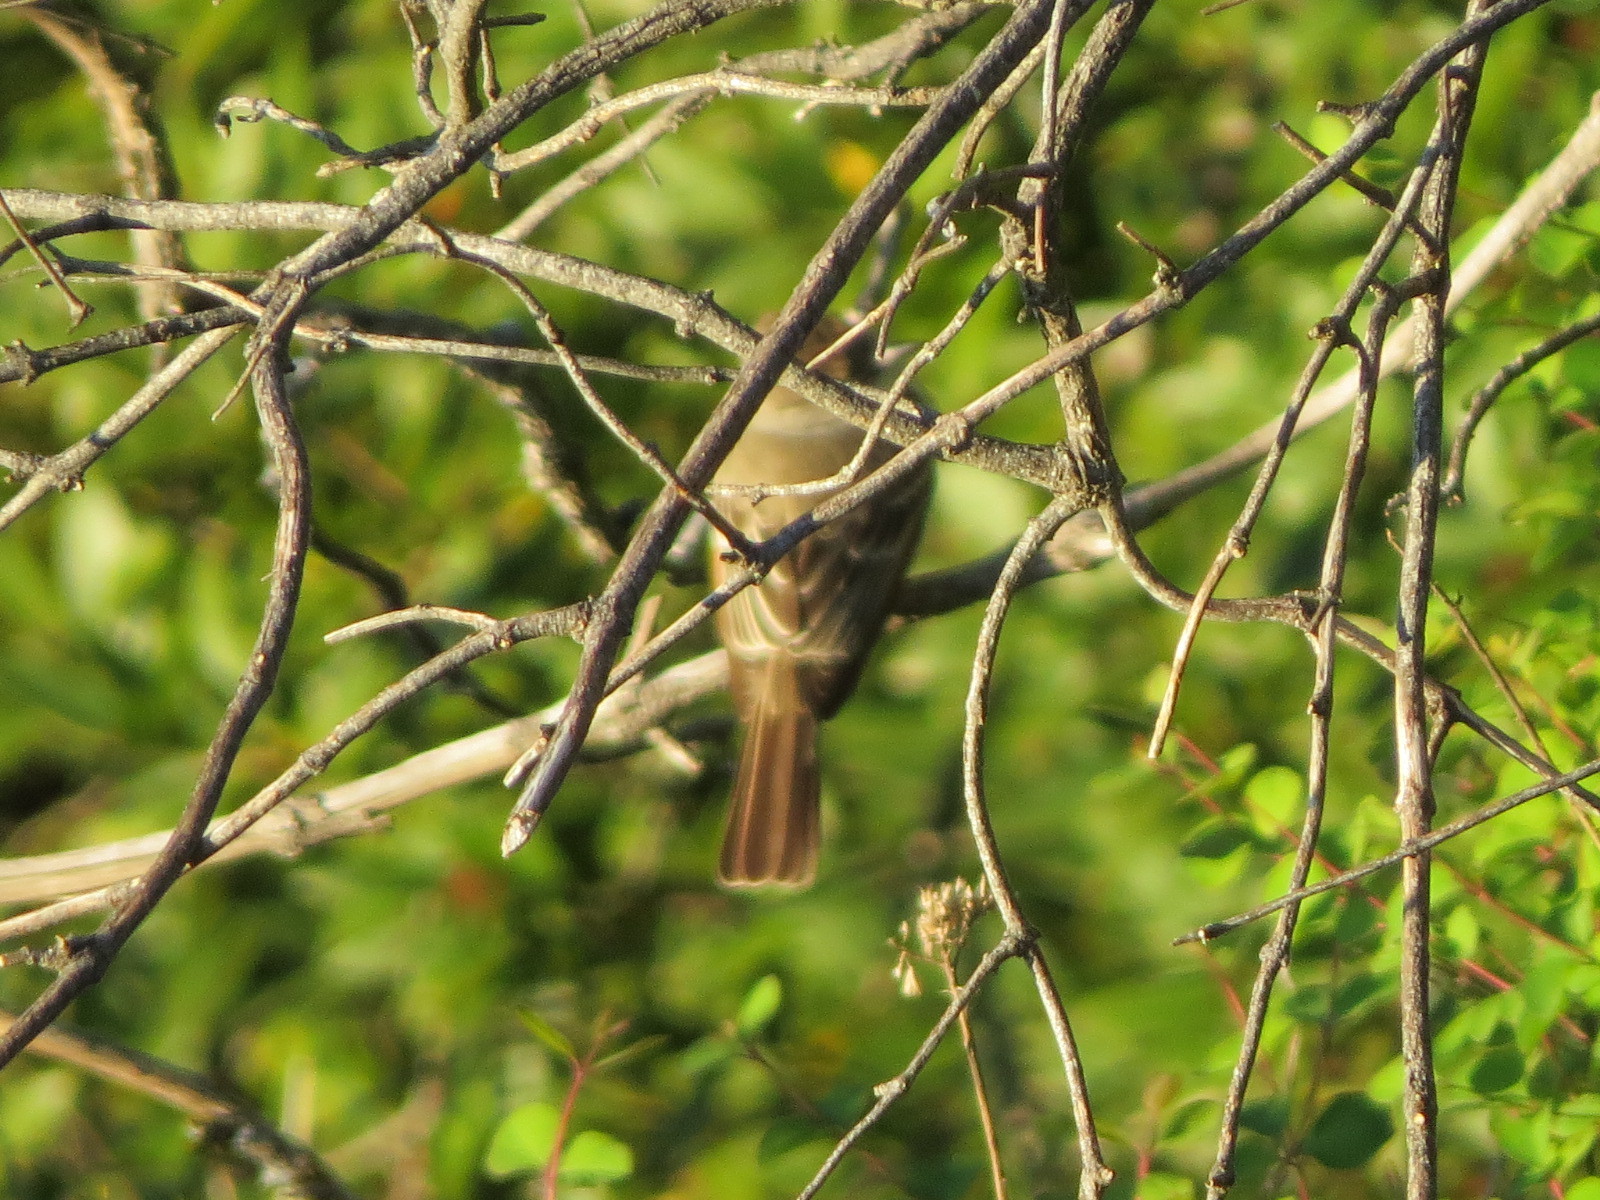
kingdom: Animalia
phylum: Chordata
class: Aves
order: Passeriformes
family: Tyrannidae
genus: Myiarchus
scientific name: Myiarchus cinerascens
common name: Ash-throated flycatcher
